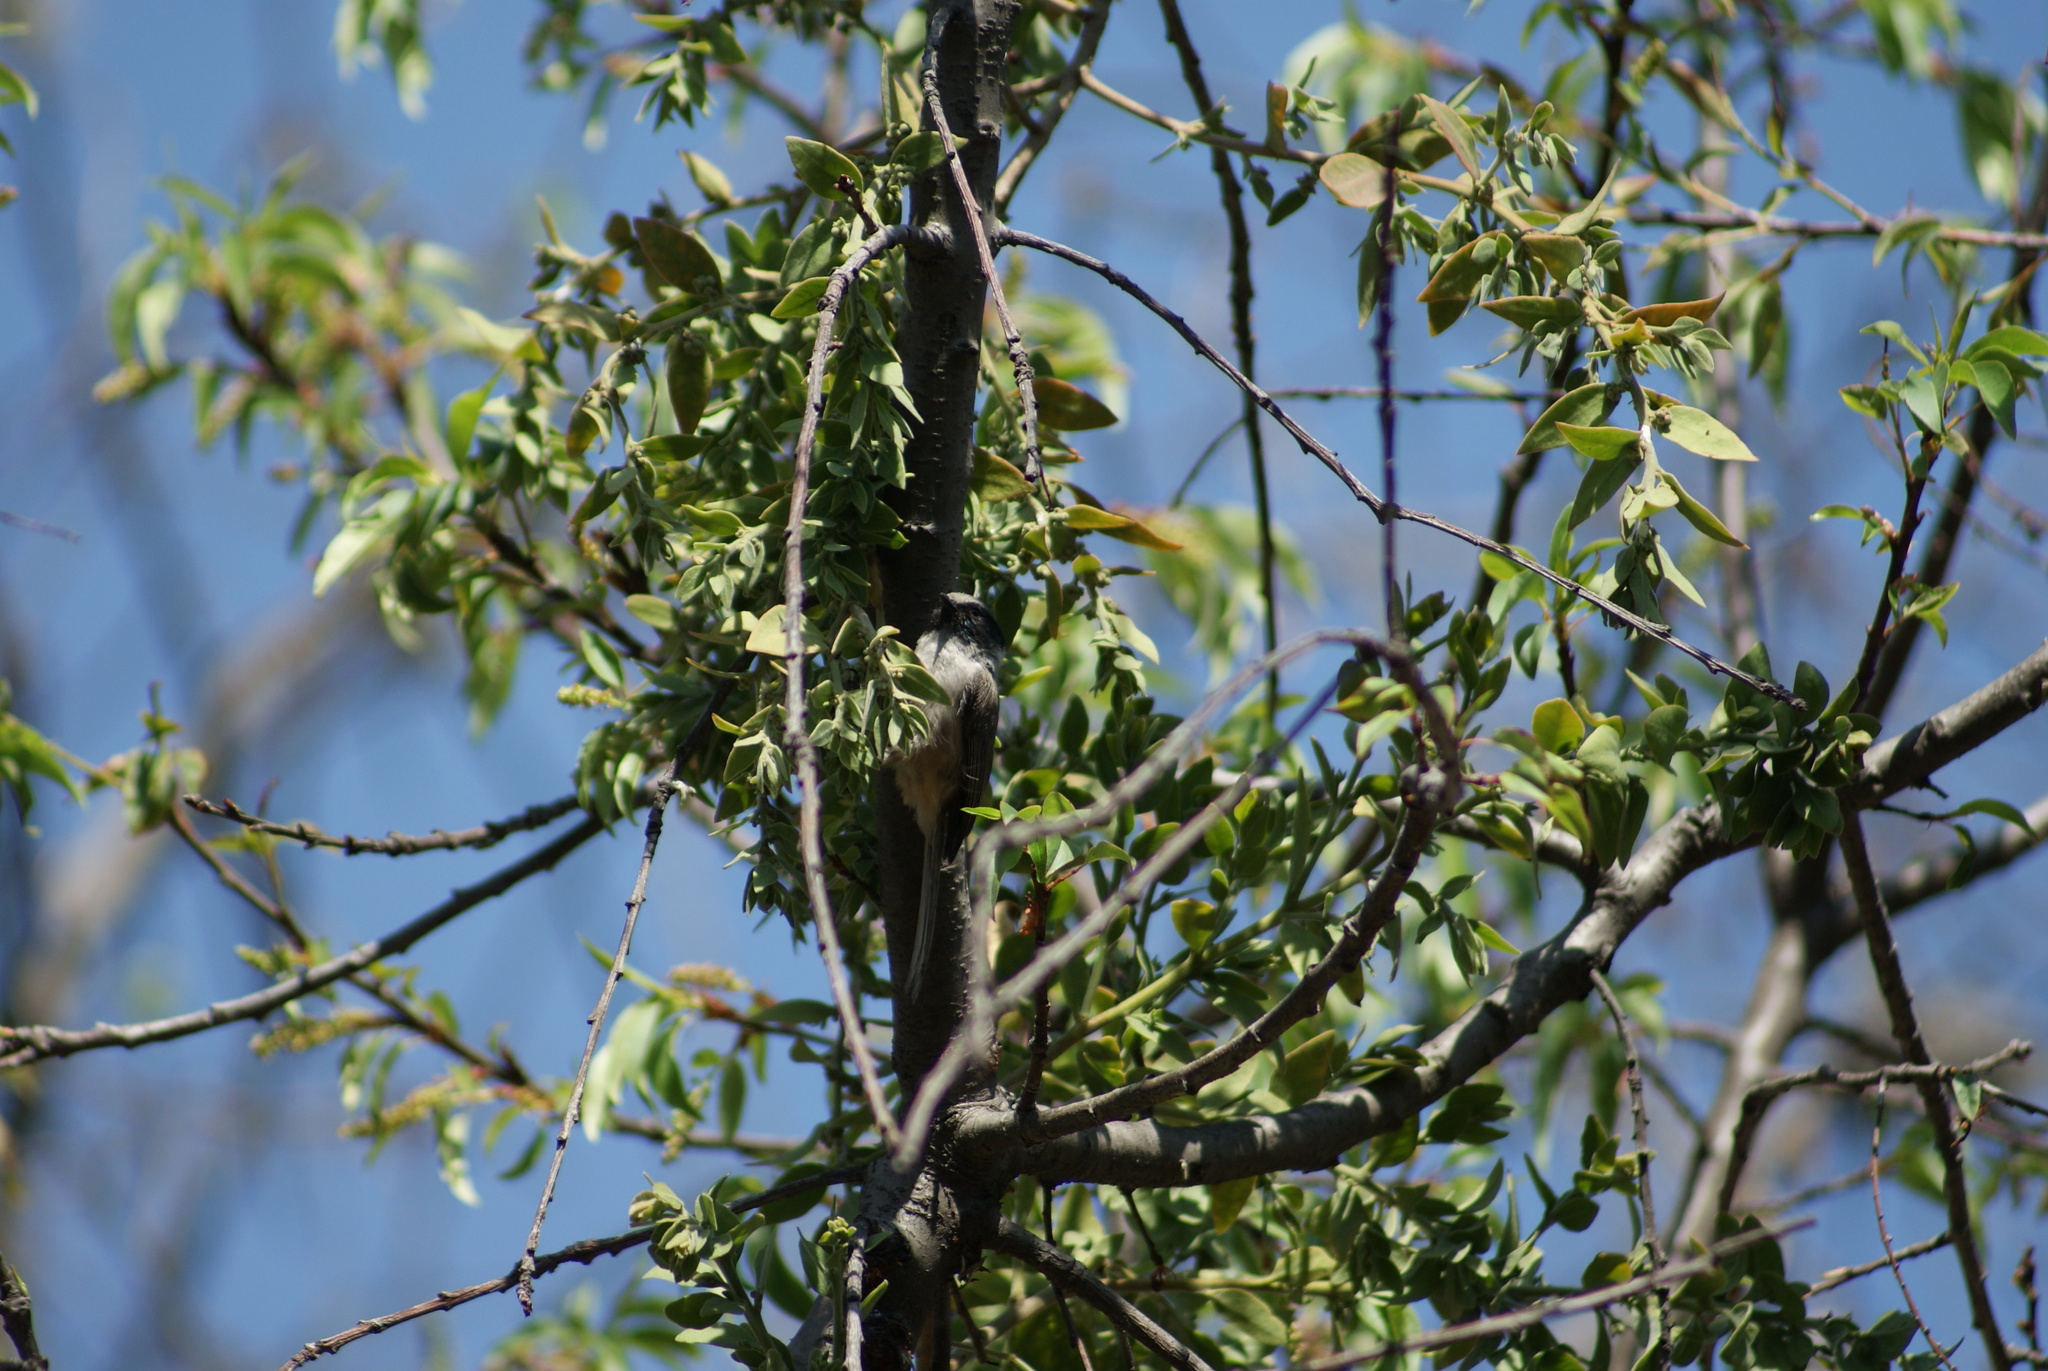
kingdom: Animalia
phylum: Chordata
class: Aves
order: Passeriformes
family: Aegithalidae
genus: Psaltriparus
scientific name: Psaltriparus minimus
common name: American bushtit
